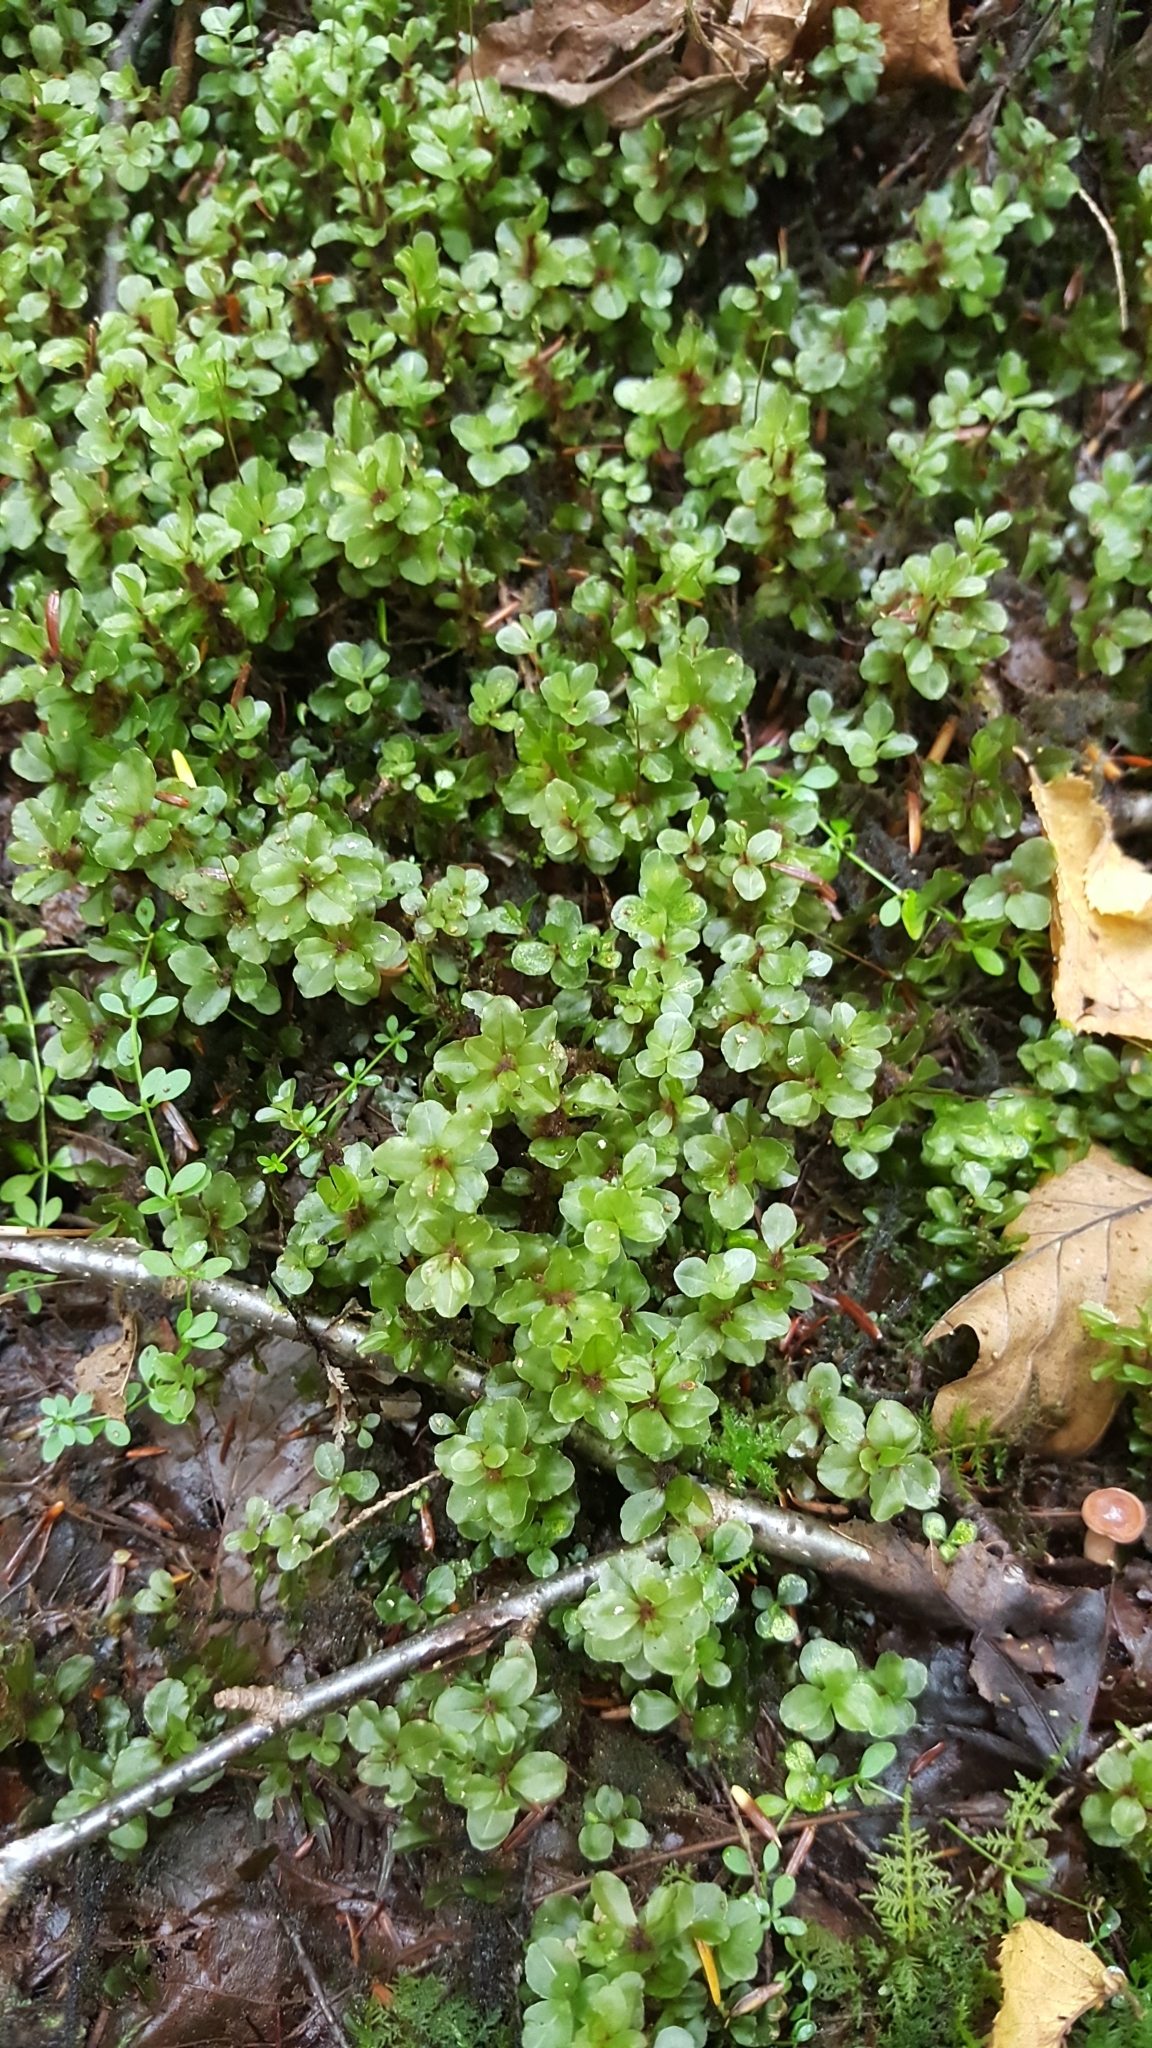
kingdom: Plantae
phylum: Bryophyta
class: Bryopsida
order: Bryales
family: Mniaceae
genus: Rhizomnium
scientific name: Rhizomnium
